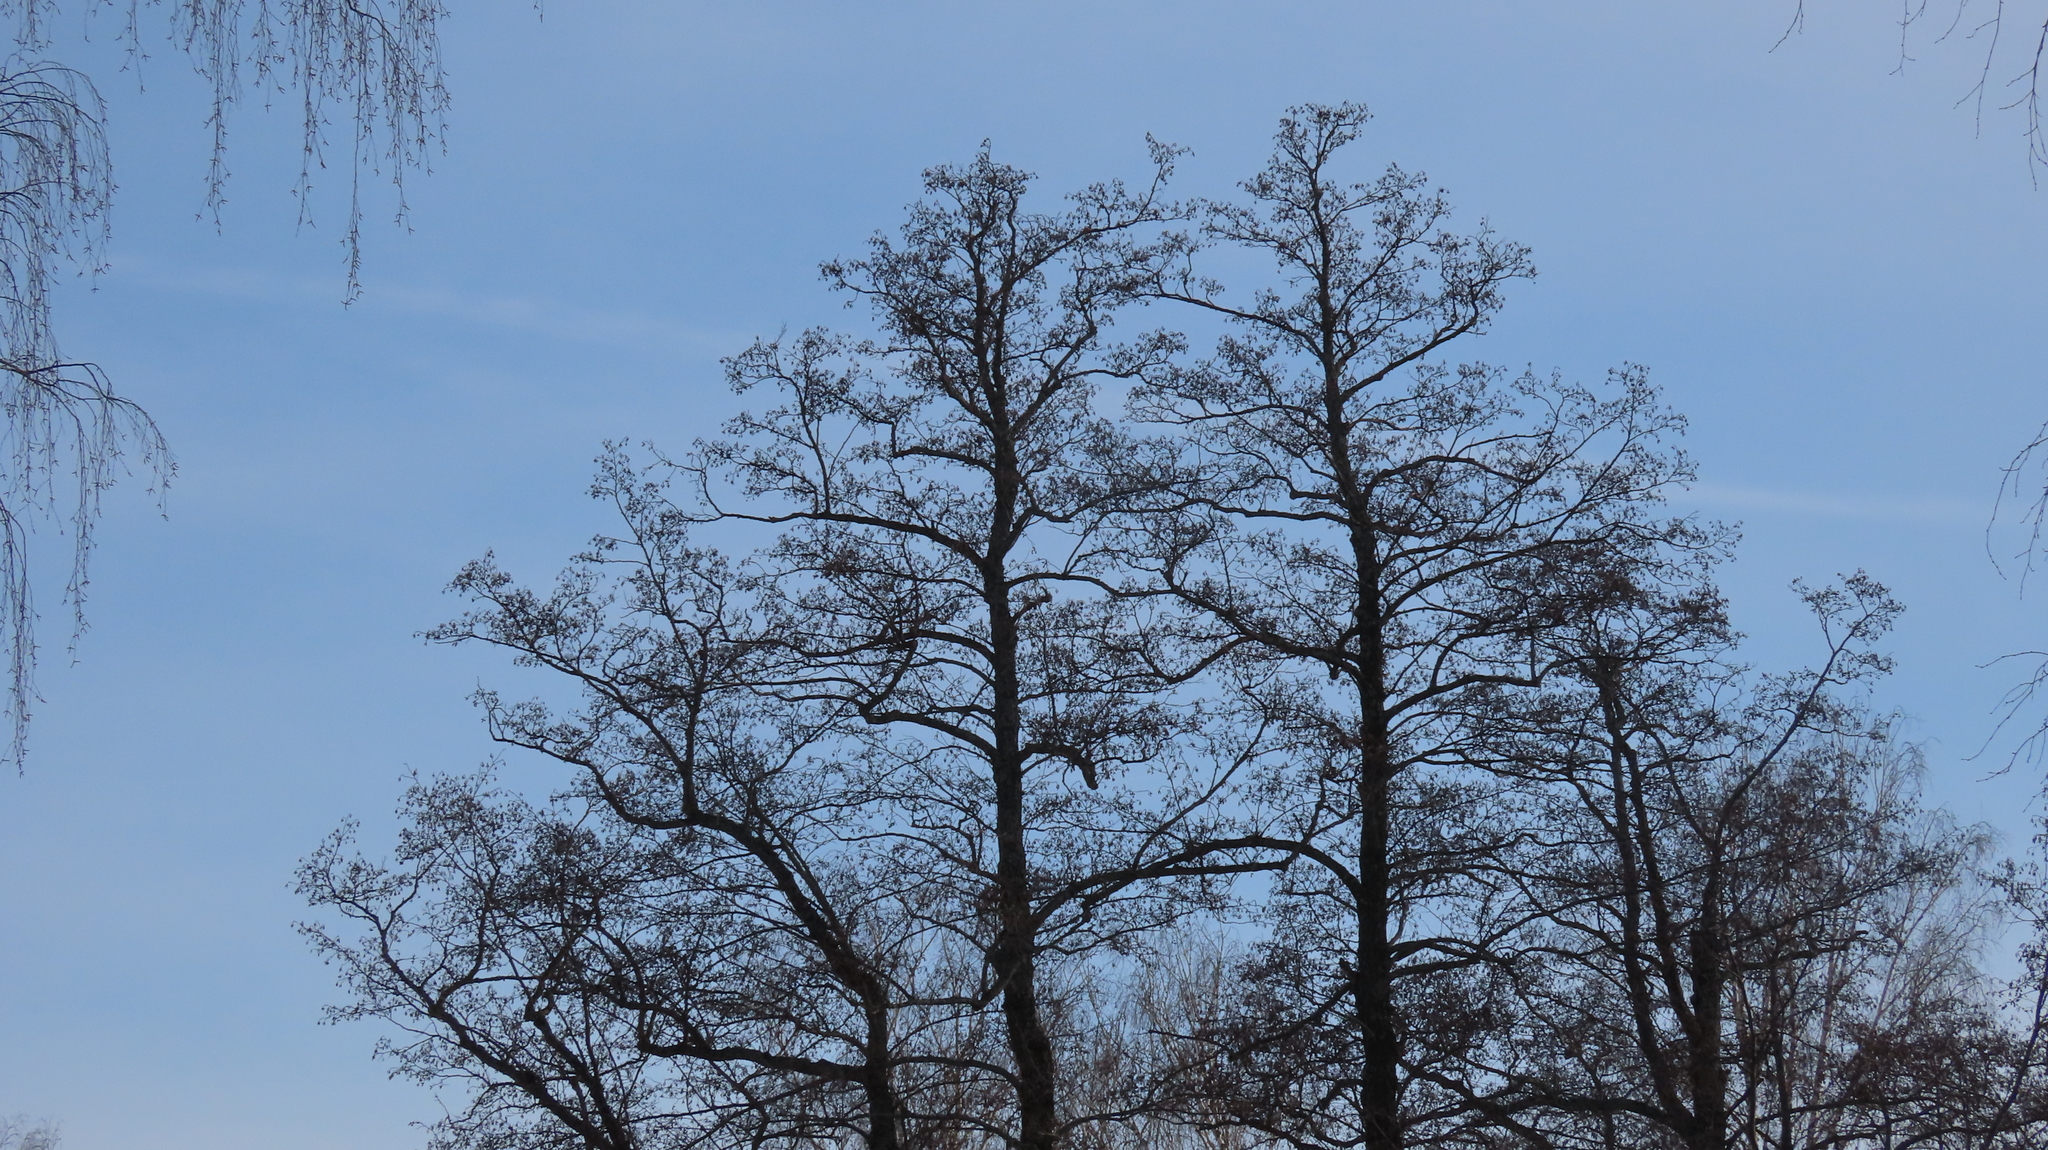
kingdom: Plantae
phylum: Tracheophyta
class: Magnoliopsida
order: Fagales
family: Betulaceae
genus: Alnus
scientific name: Alnus glutinosa
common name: Black alder
